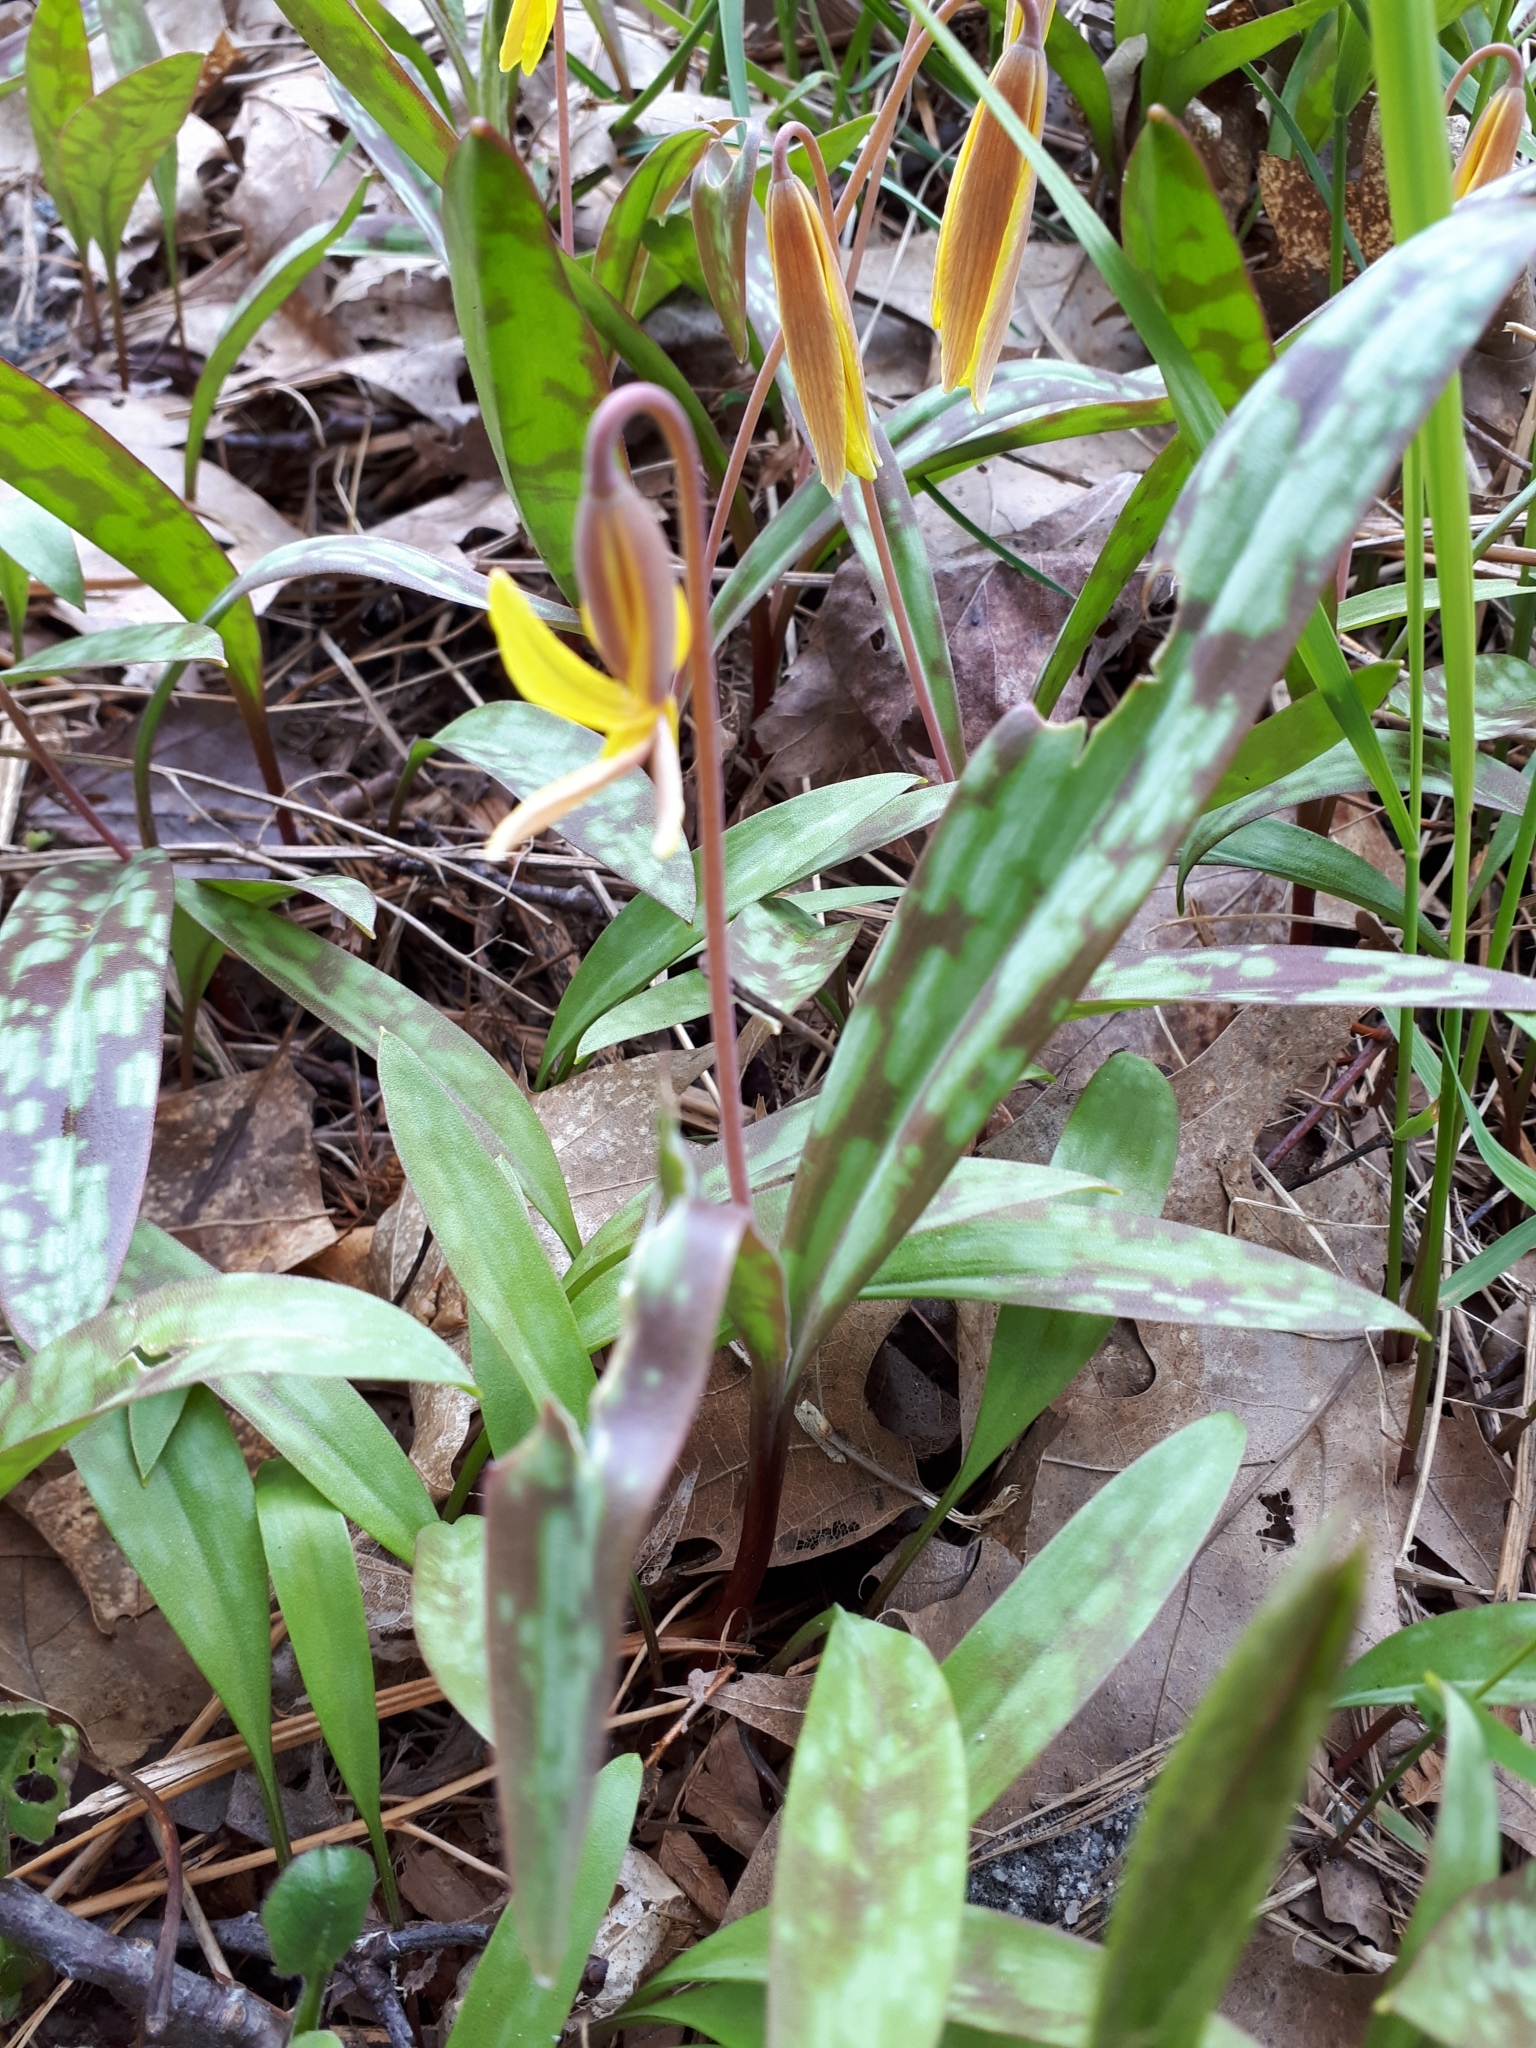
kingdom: Plantae
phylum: Tracheophyta
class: Liliopsida
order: Liliales
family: Liliaceae
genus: Erythronium
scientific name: Erythronium americanum
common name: Yellow adder's-tongue
